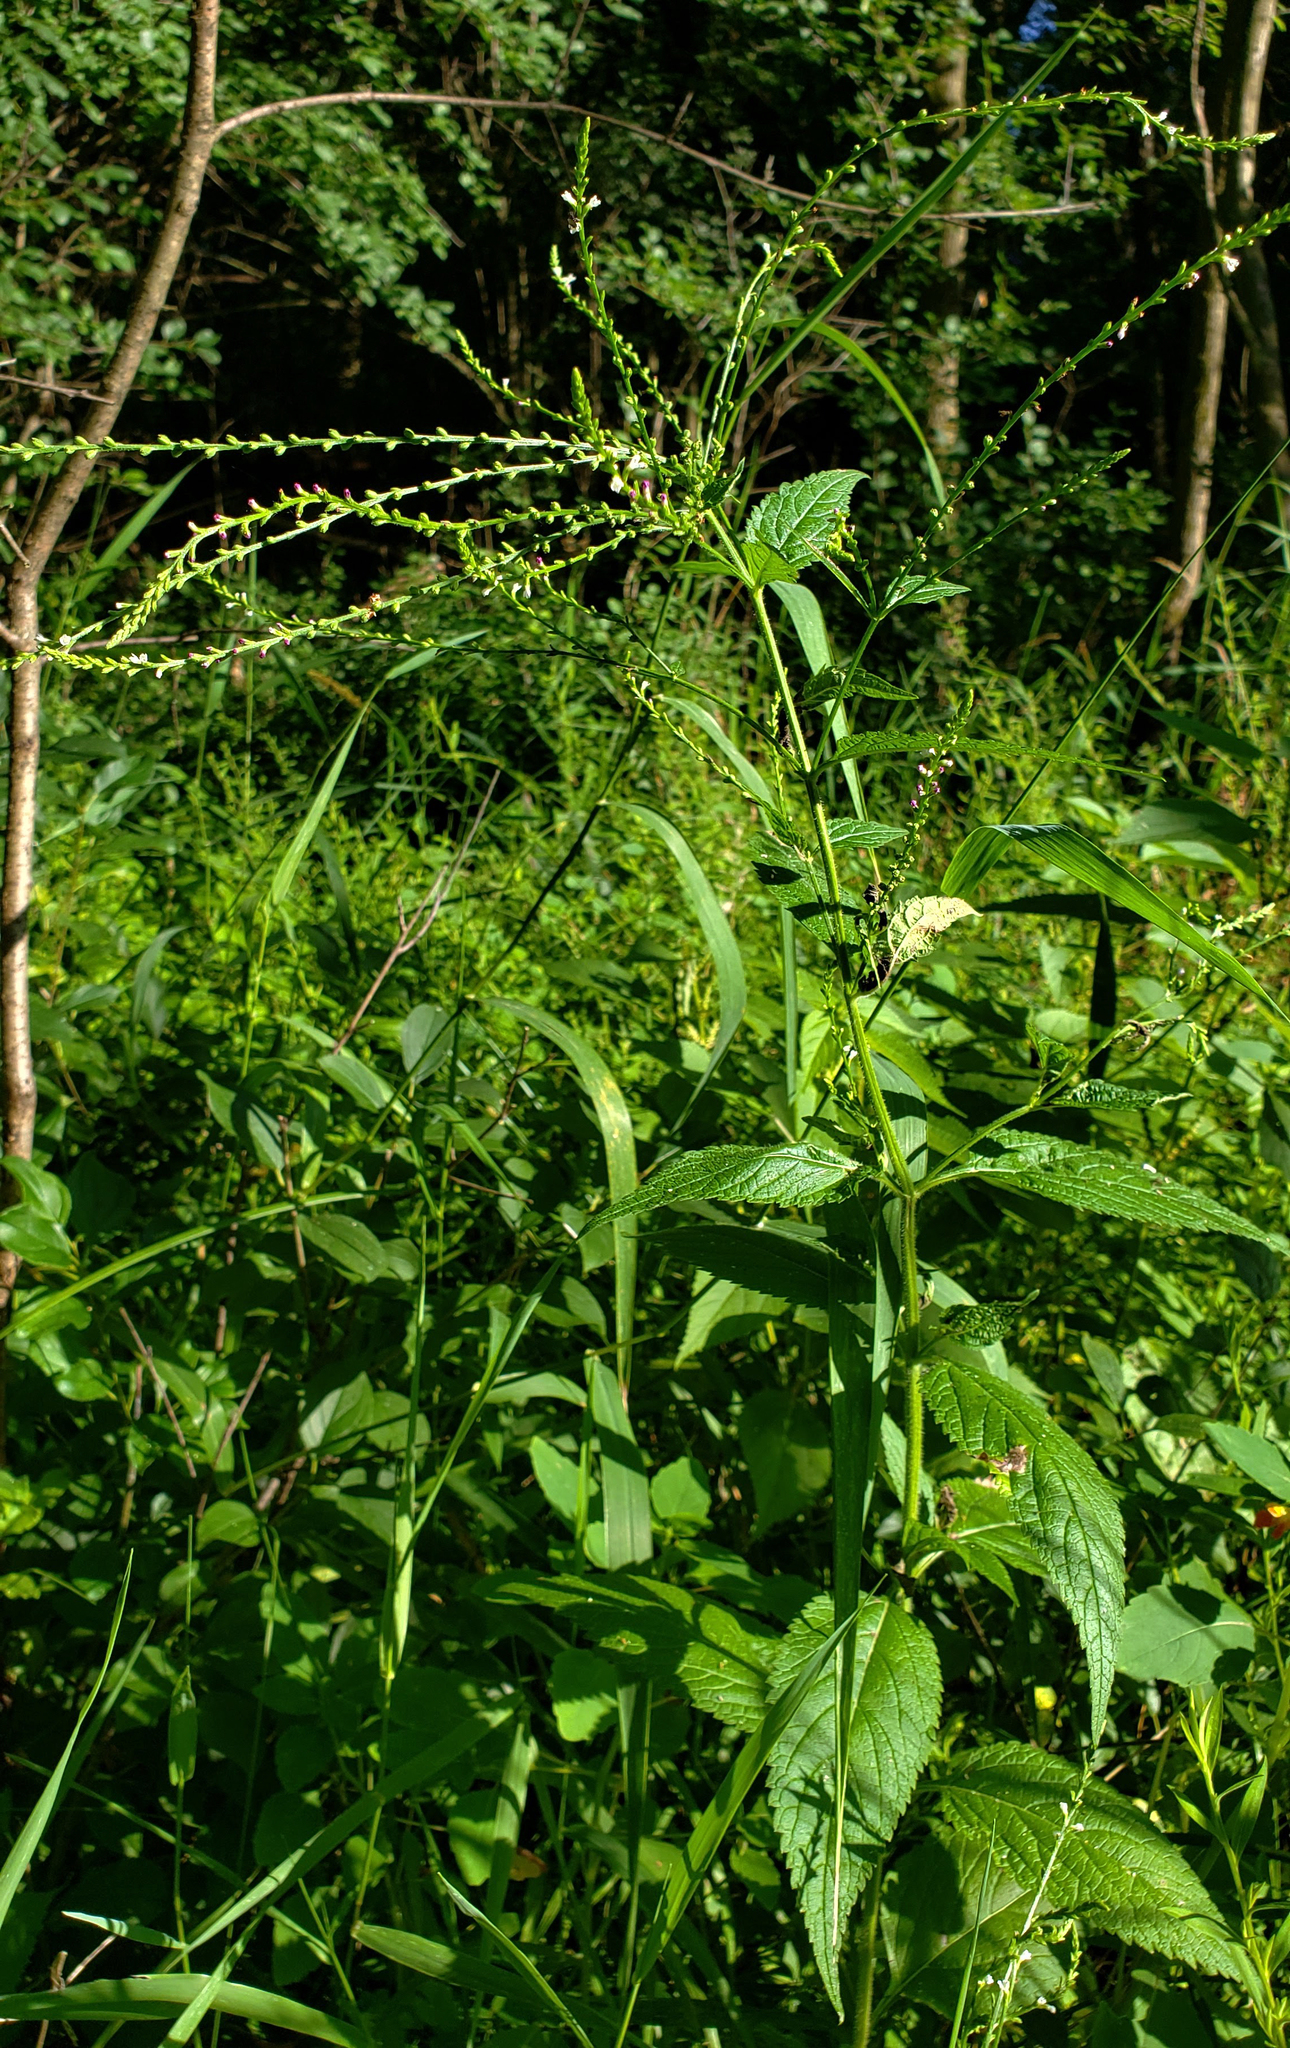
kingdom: Plantae
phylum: Tracheophyta
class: Magnoliopsida
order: Lamiales
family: Verbenaceae
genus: Verbena
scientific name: Verbena urticifolia
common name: Nettle-leaved vervain
